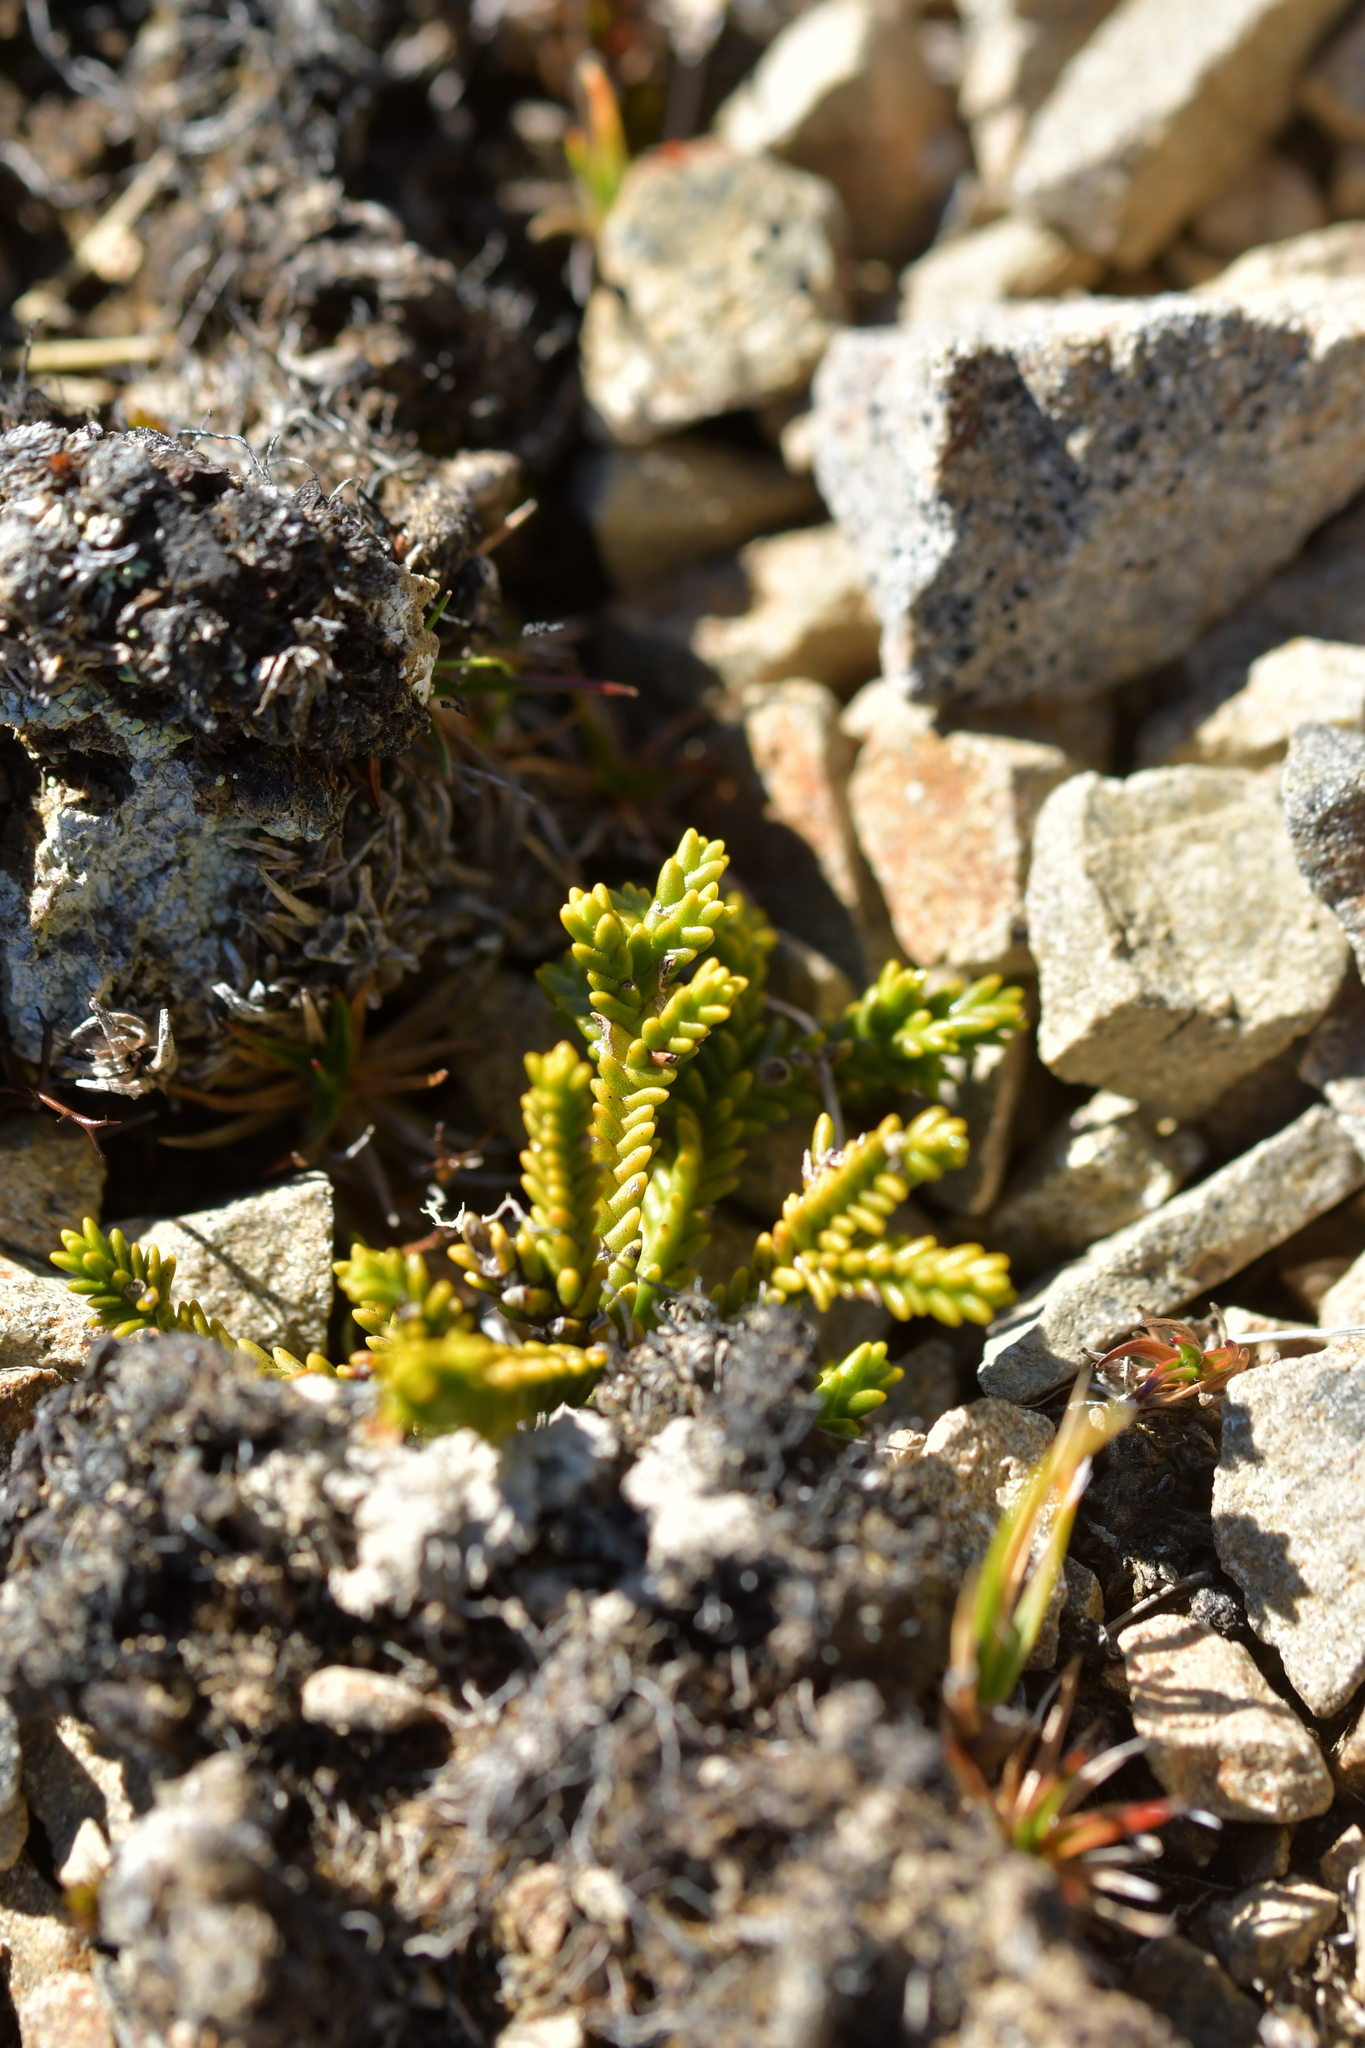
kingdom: Plantae
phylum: Tracheophyta
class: Magnoliopsida
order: Lamiales
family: Plantaginaceae
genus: Veronica
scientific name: Veronica tetragona
